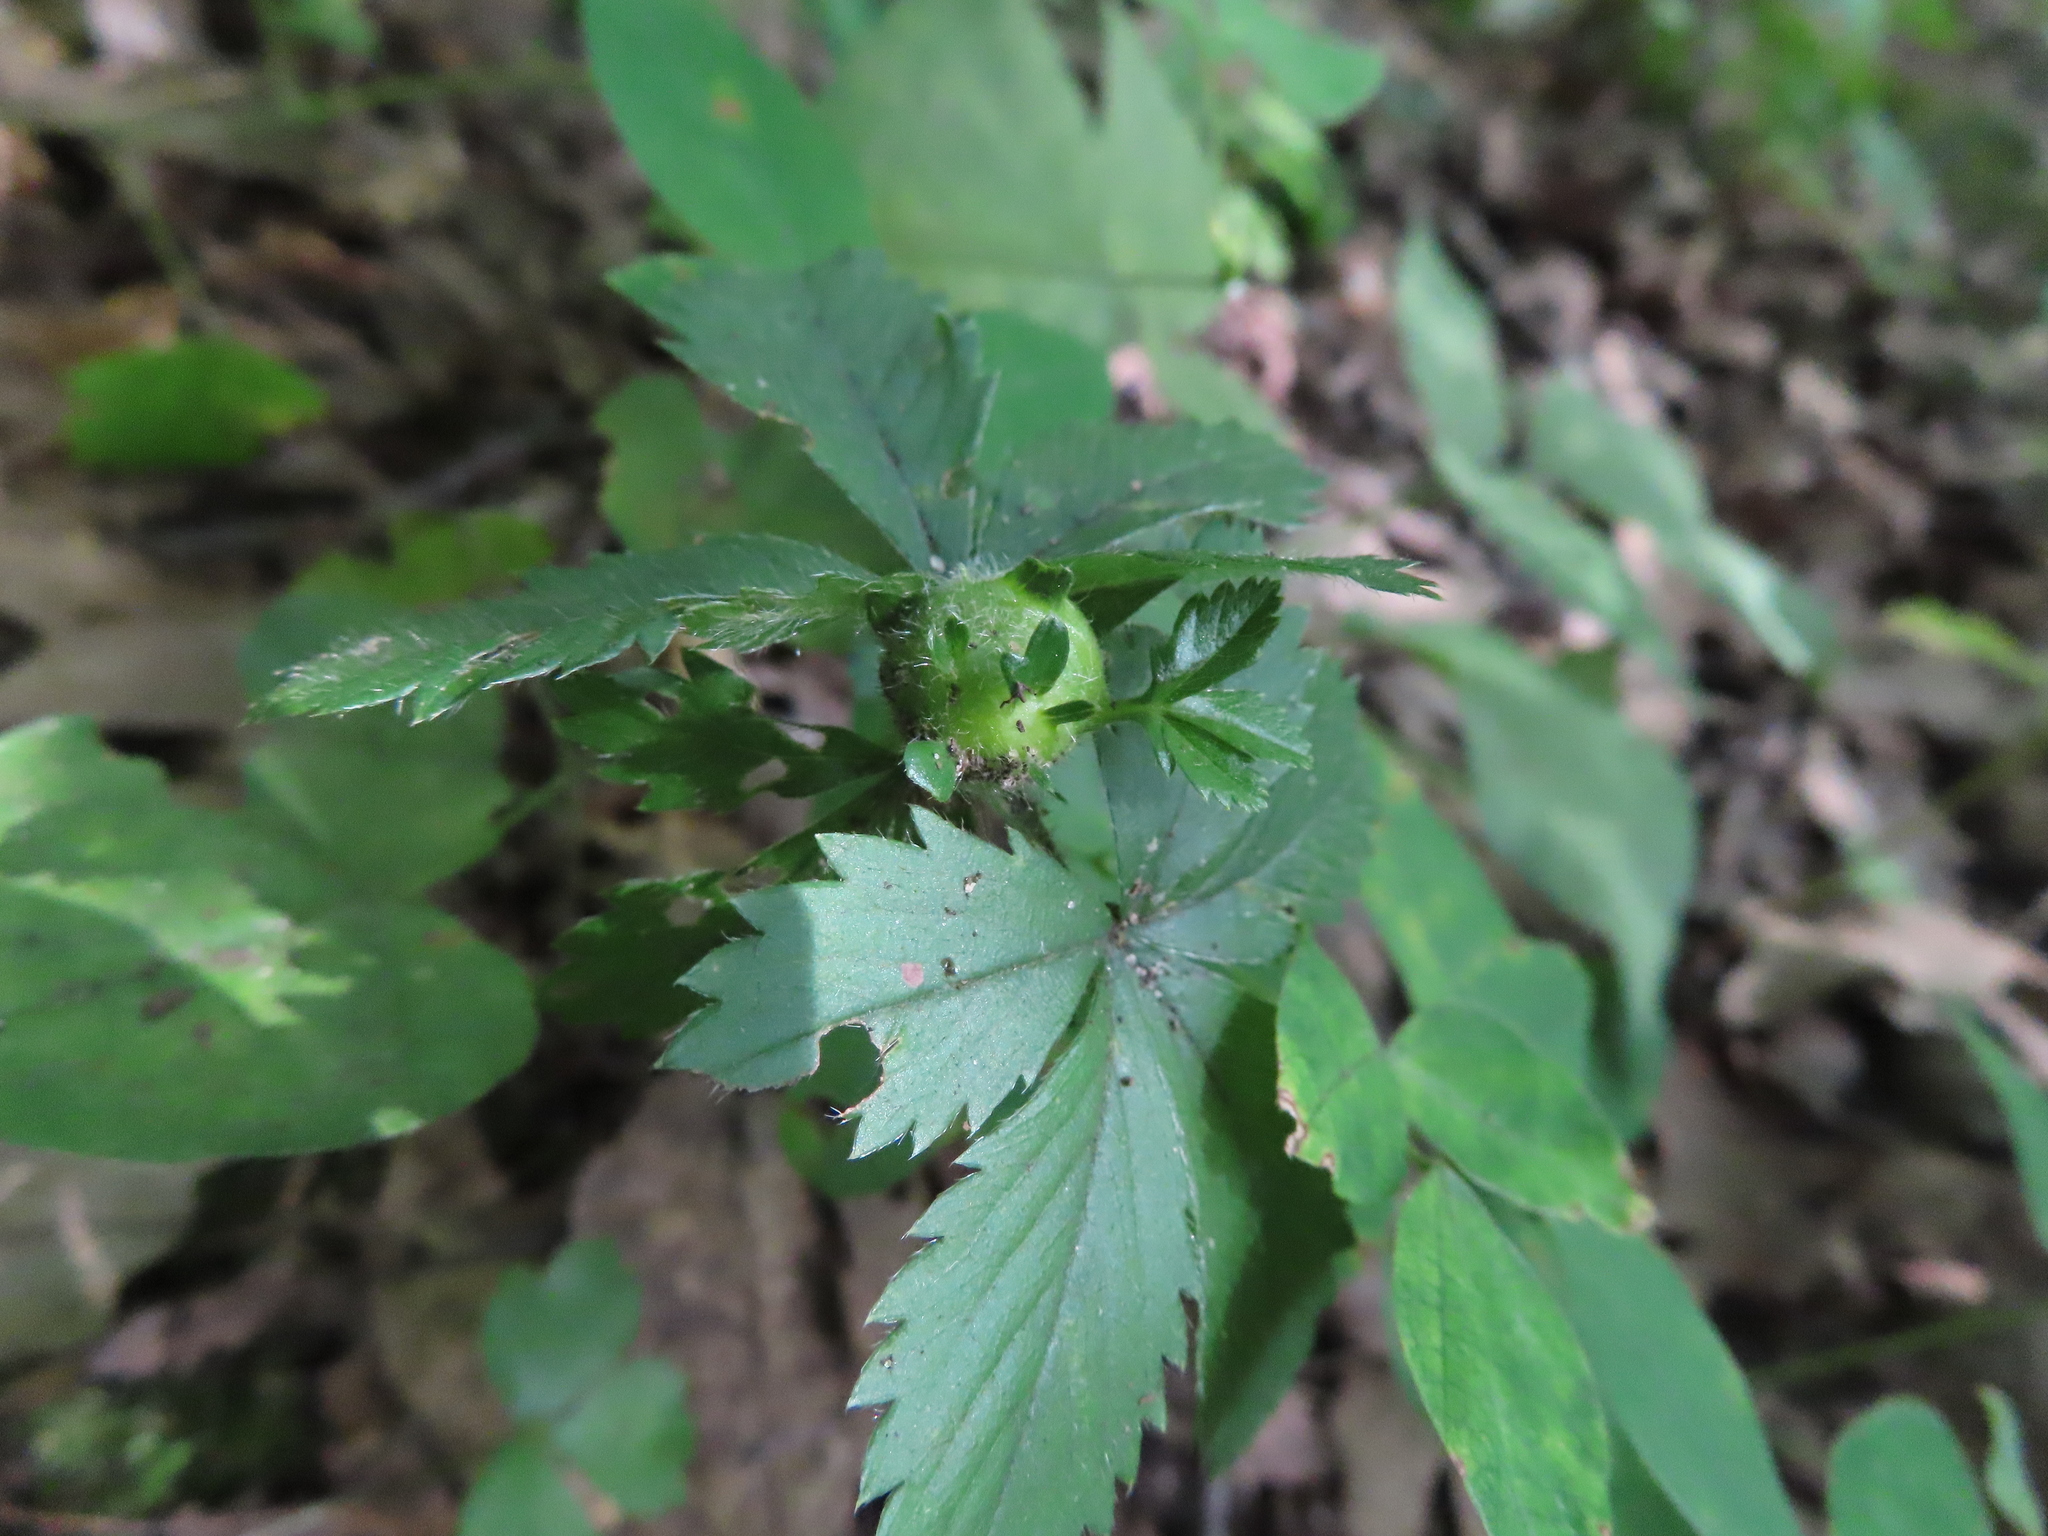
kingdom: Animalia
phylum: Arthropoda
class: Insecta
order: Hymenoptera
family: Cynipidae
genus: Diastrophus
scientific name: Diastrophus potentillae
